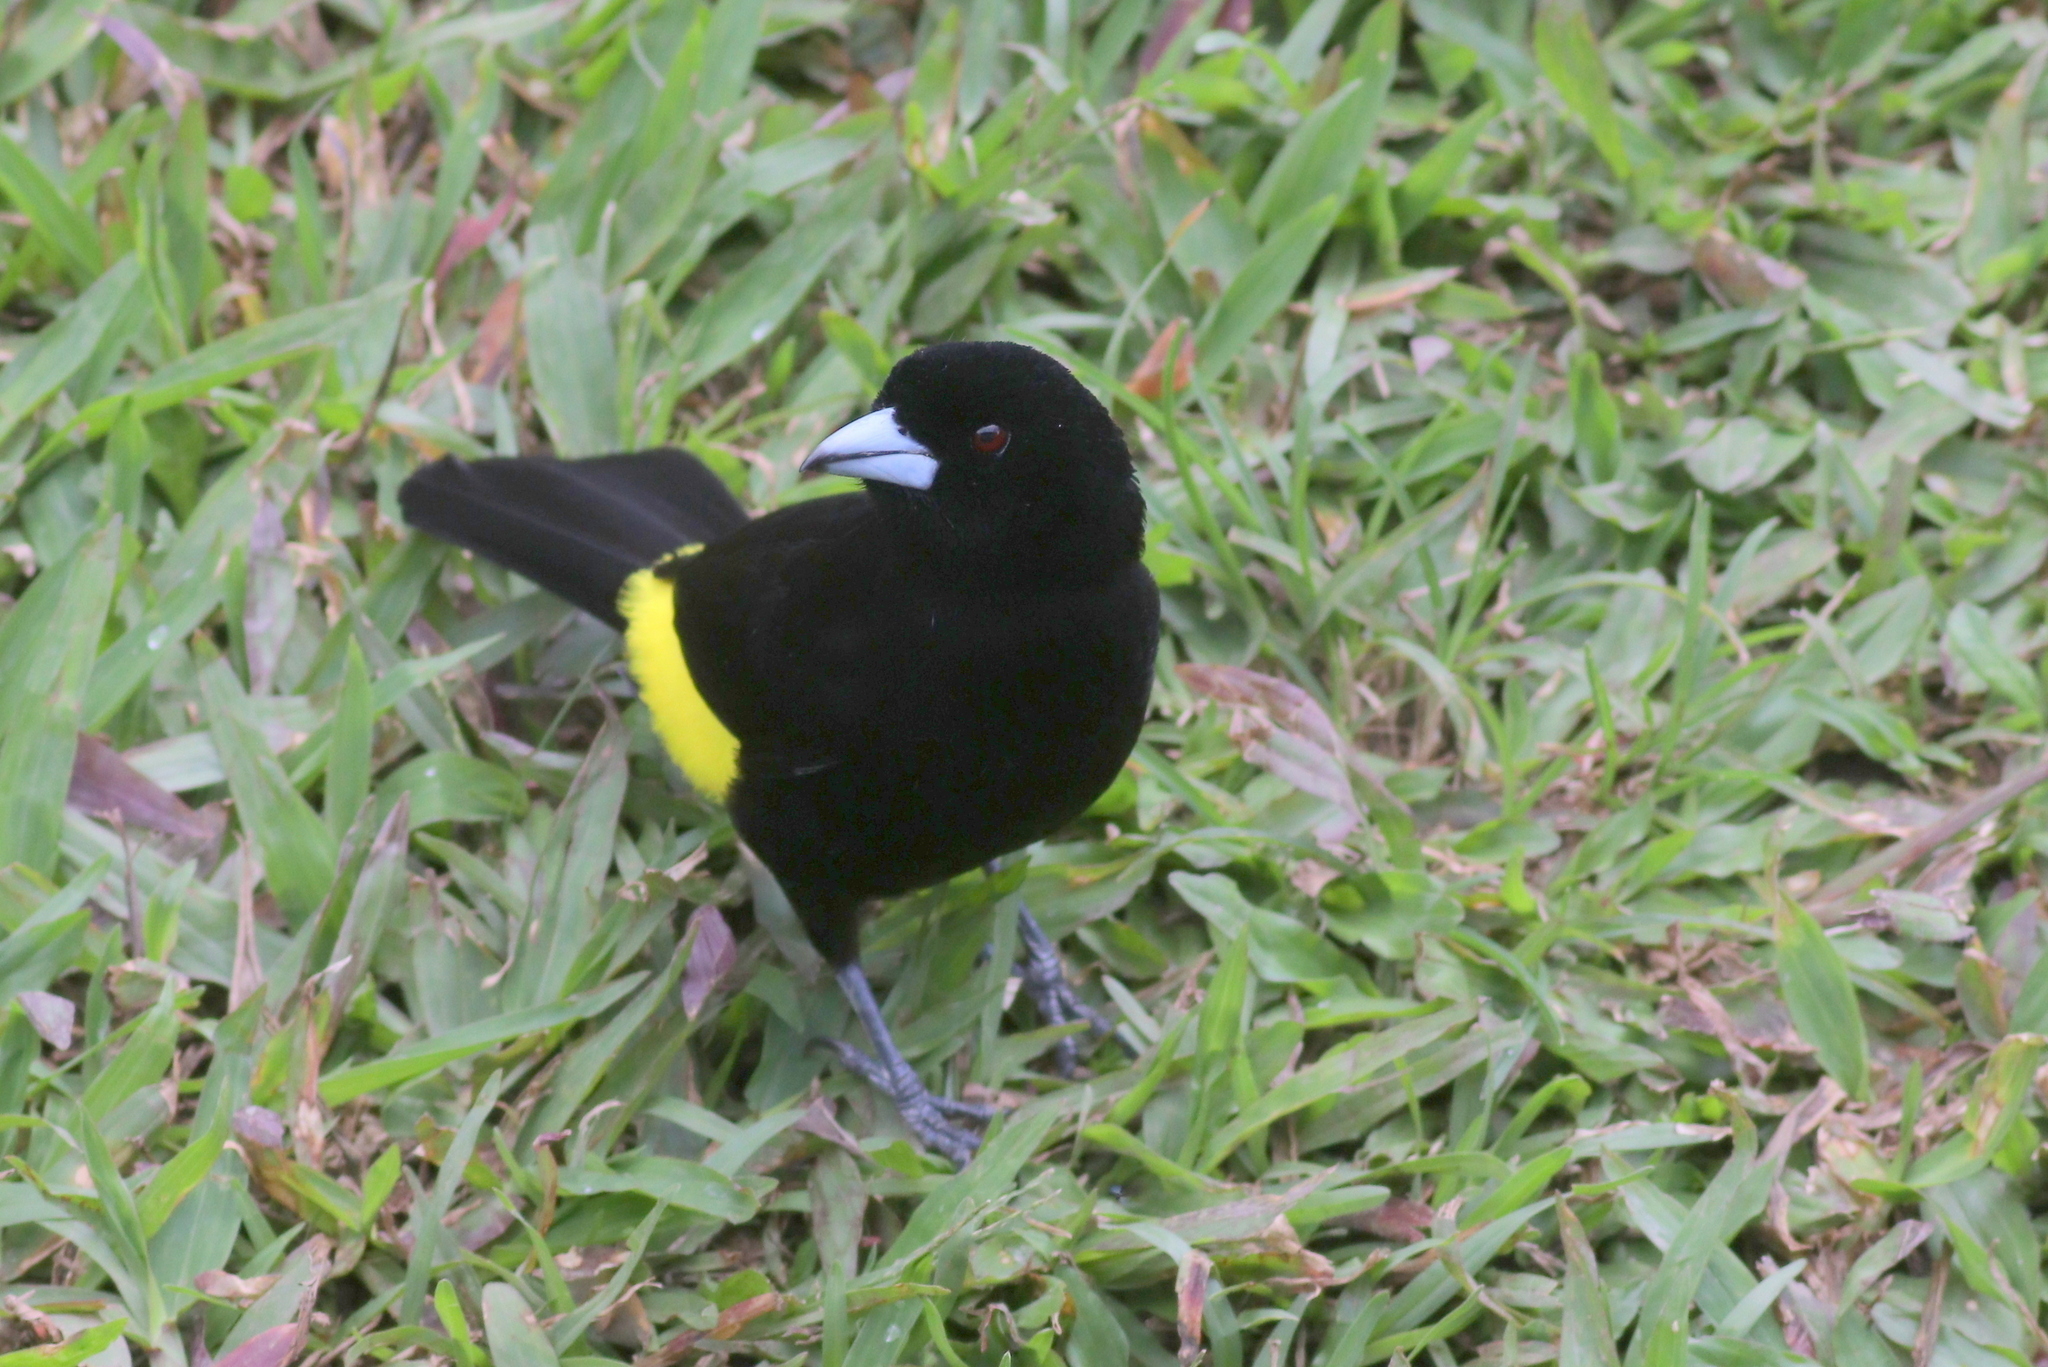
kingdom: Animalia
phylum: Chordata
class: Aves
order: Passeriformes
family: Thraupidae
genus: Ramphocelus
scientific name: Ramphocelus icteronotus
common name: Lemon-rumped tanager
